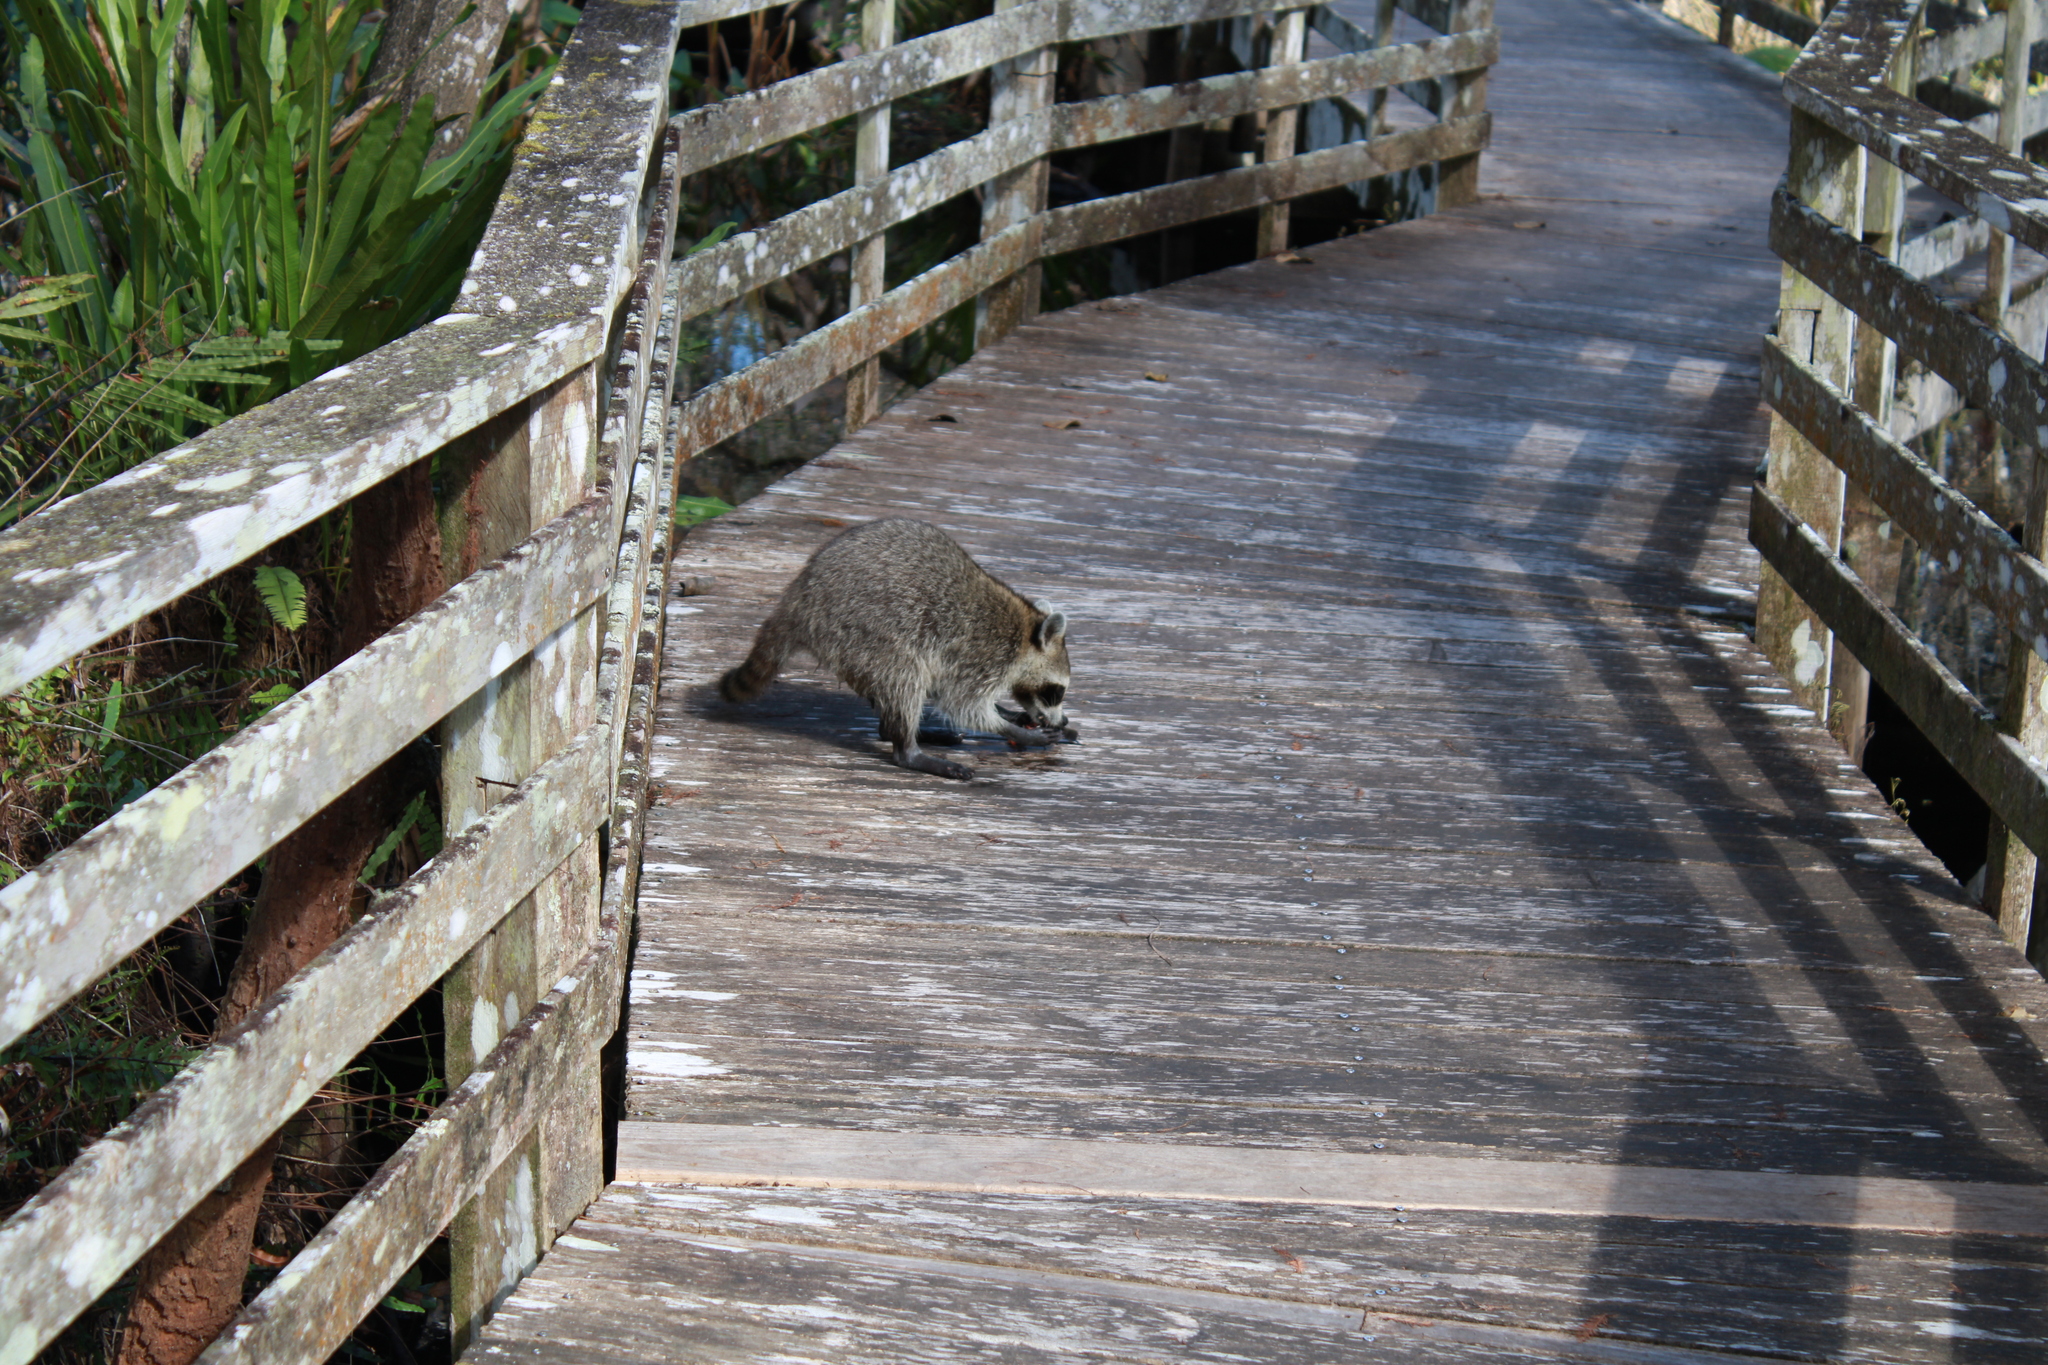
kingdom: Animalia
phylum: Chordata
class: Mammalia
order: Carnivora
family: Procyonidae
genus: Procyon
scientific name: Procyon lotor
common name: Raccoon
